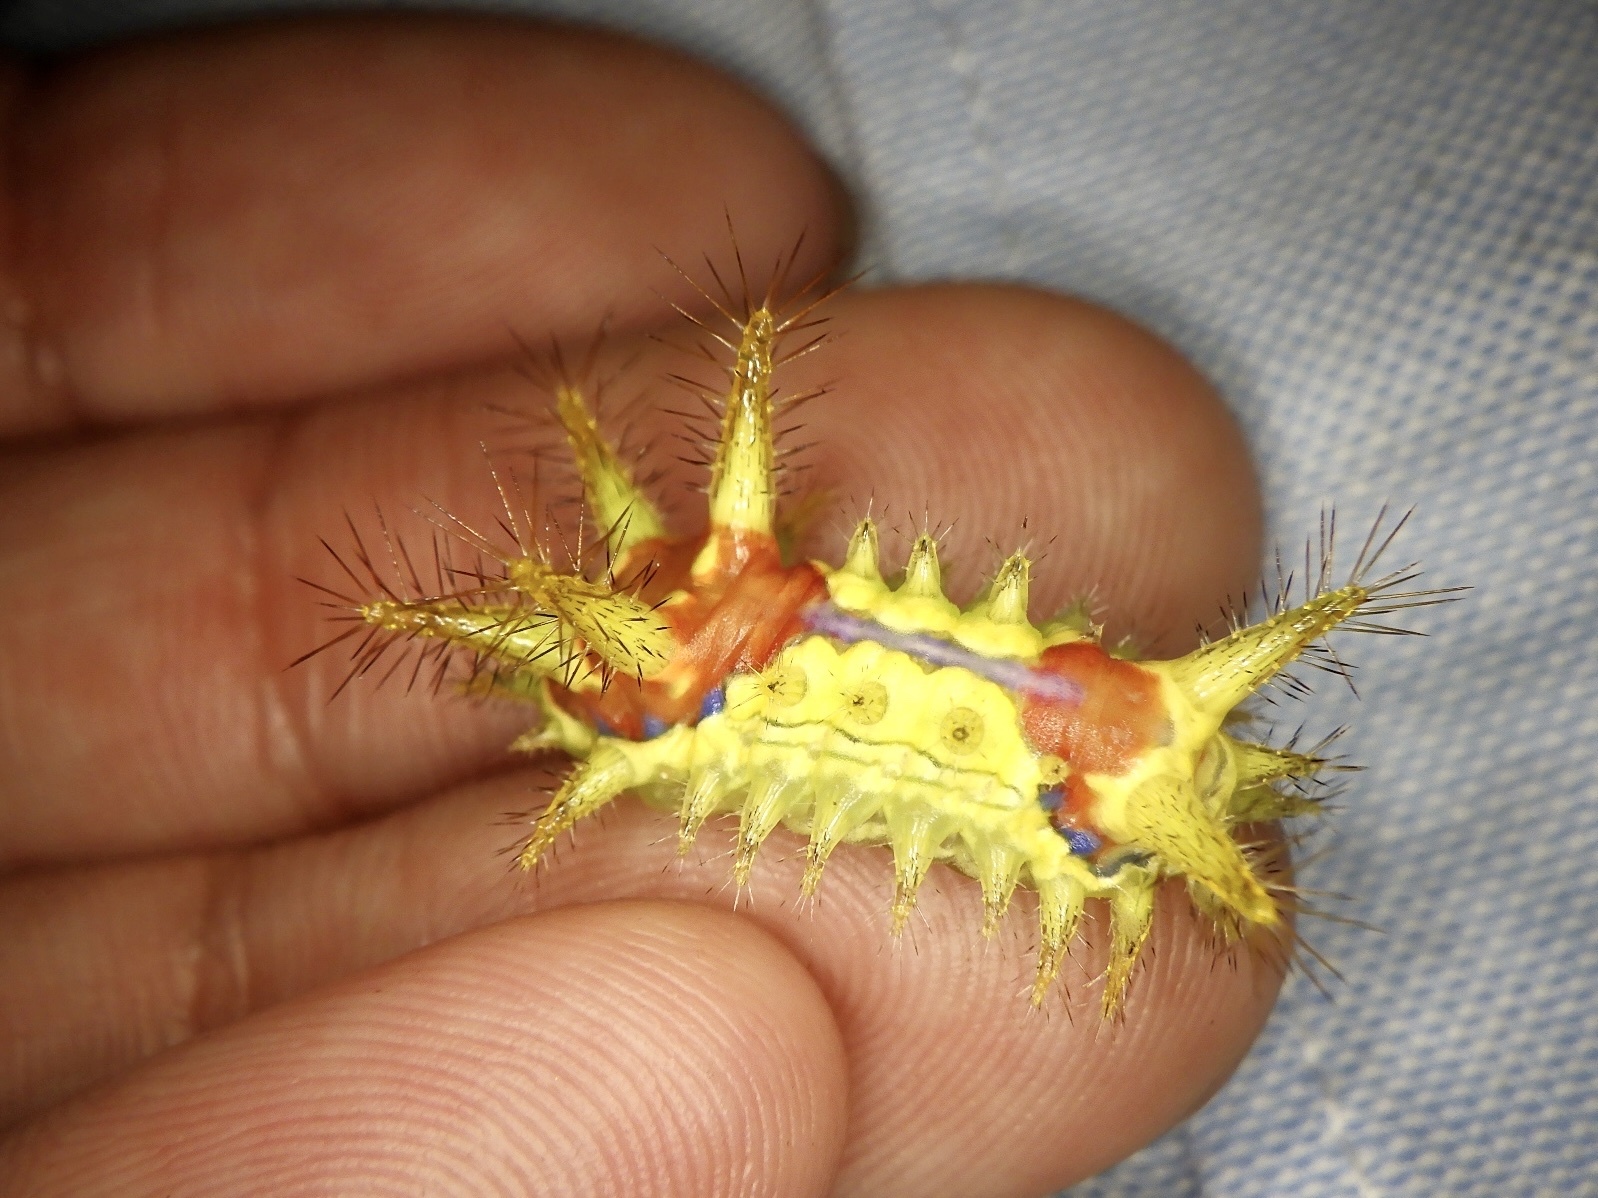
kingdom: Animalia
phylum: Arthropoda
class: Insecta
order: Lepidoptera
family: Limacodidae
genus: Monema
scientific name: Monema flavescens
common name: Oriental moth
